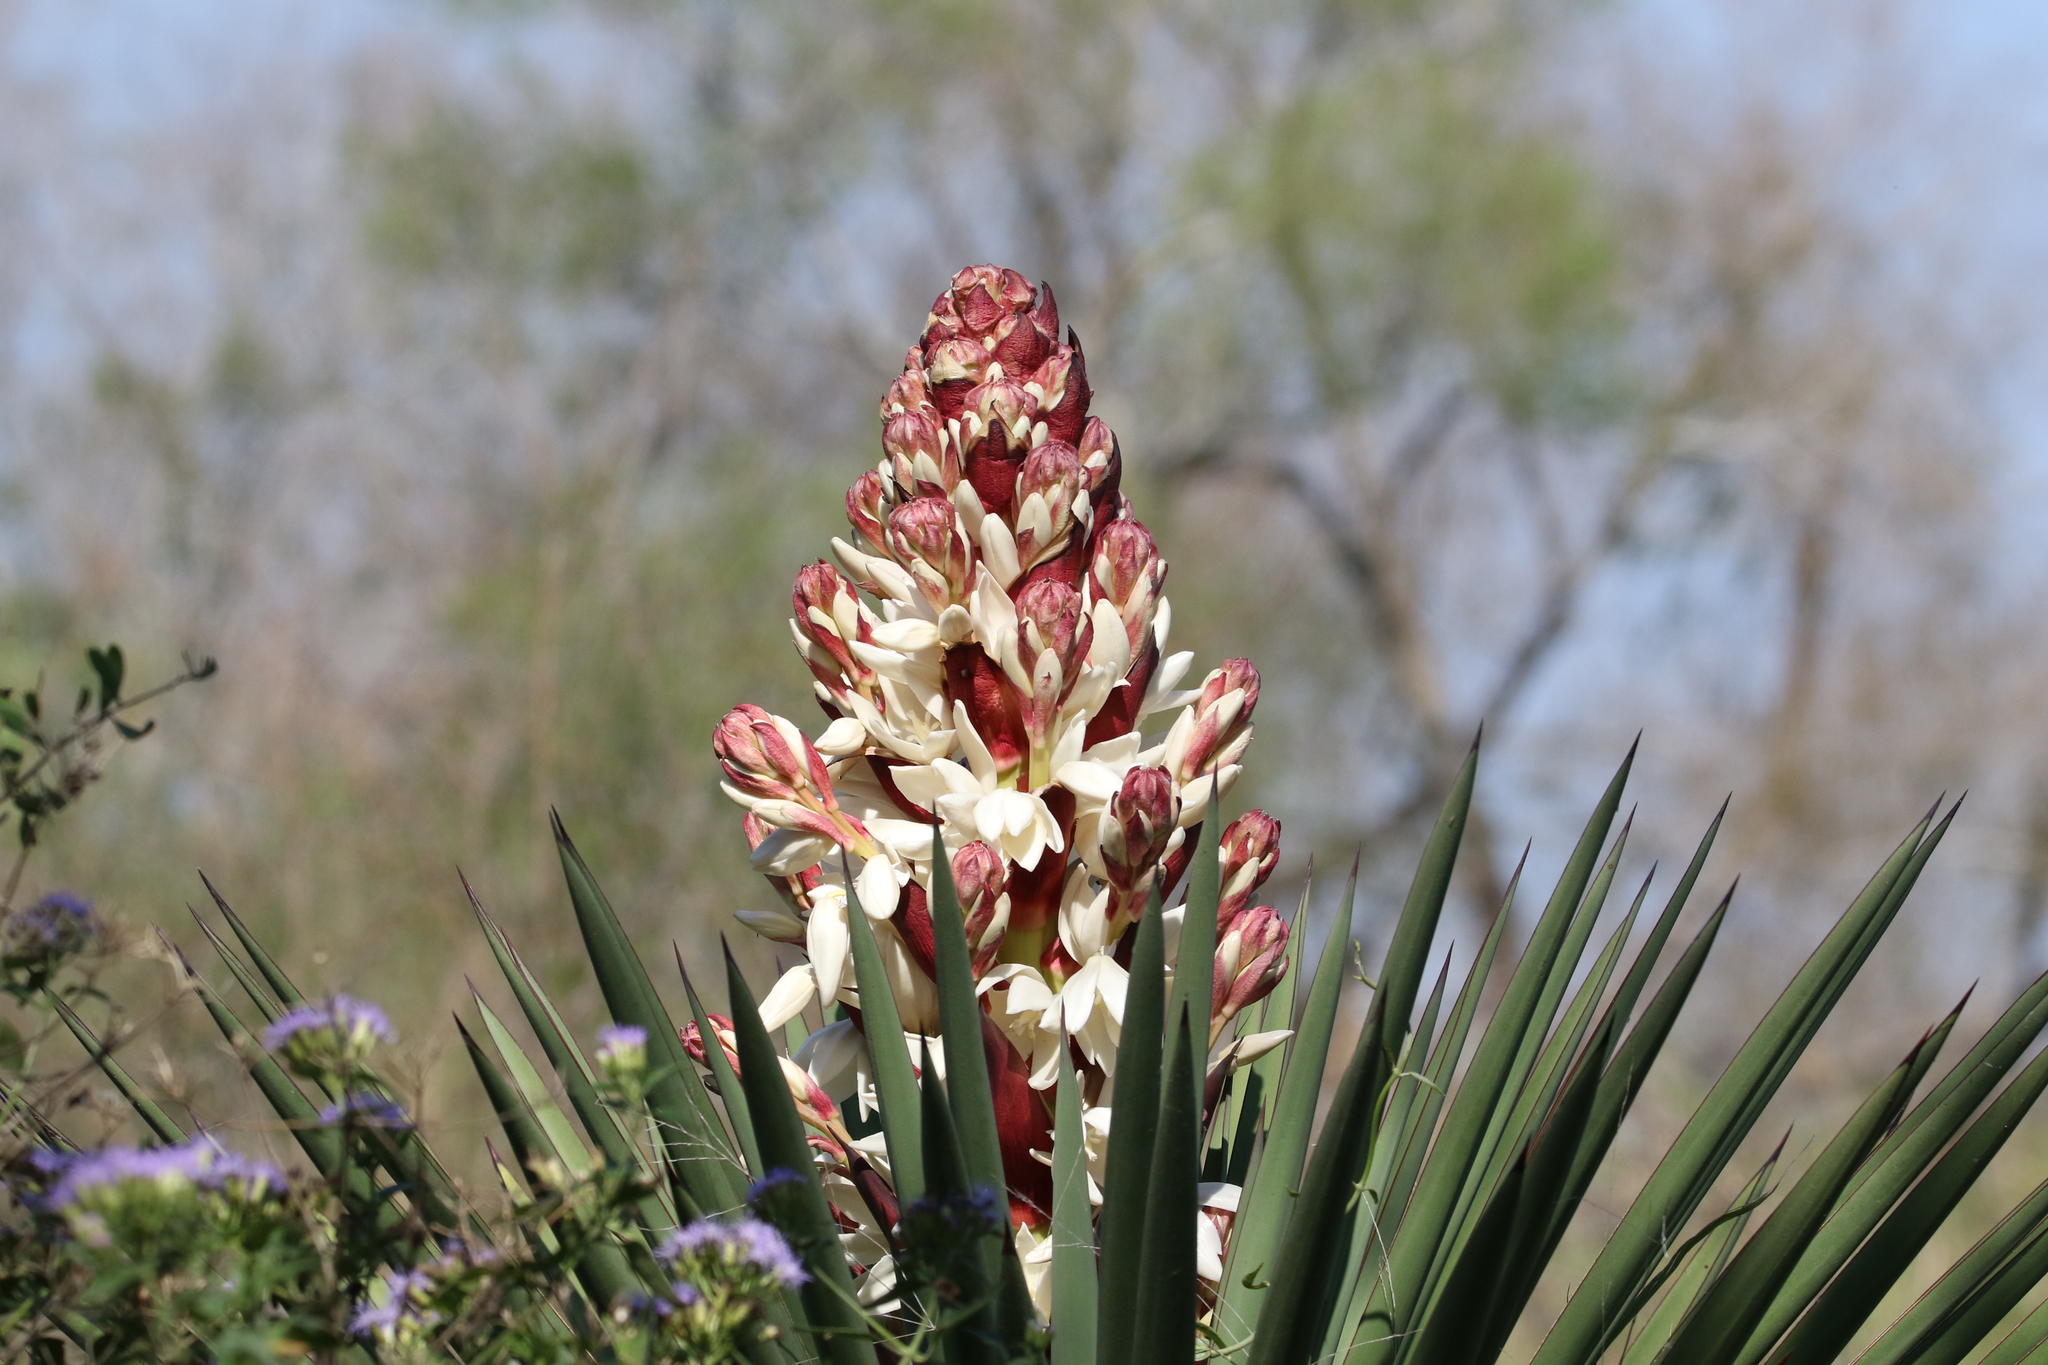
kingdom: Plantae
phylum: Tracheophyta
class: Liliopsida
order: Asparagales
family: Asparagaceae
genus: Yucca
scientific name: Yucca treculiana
